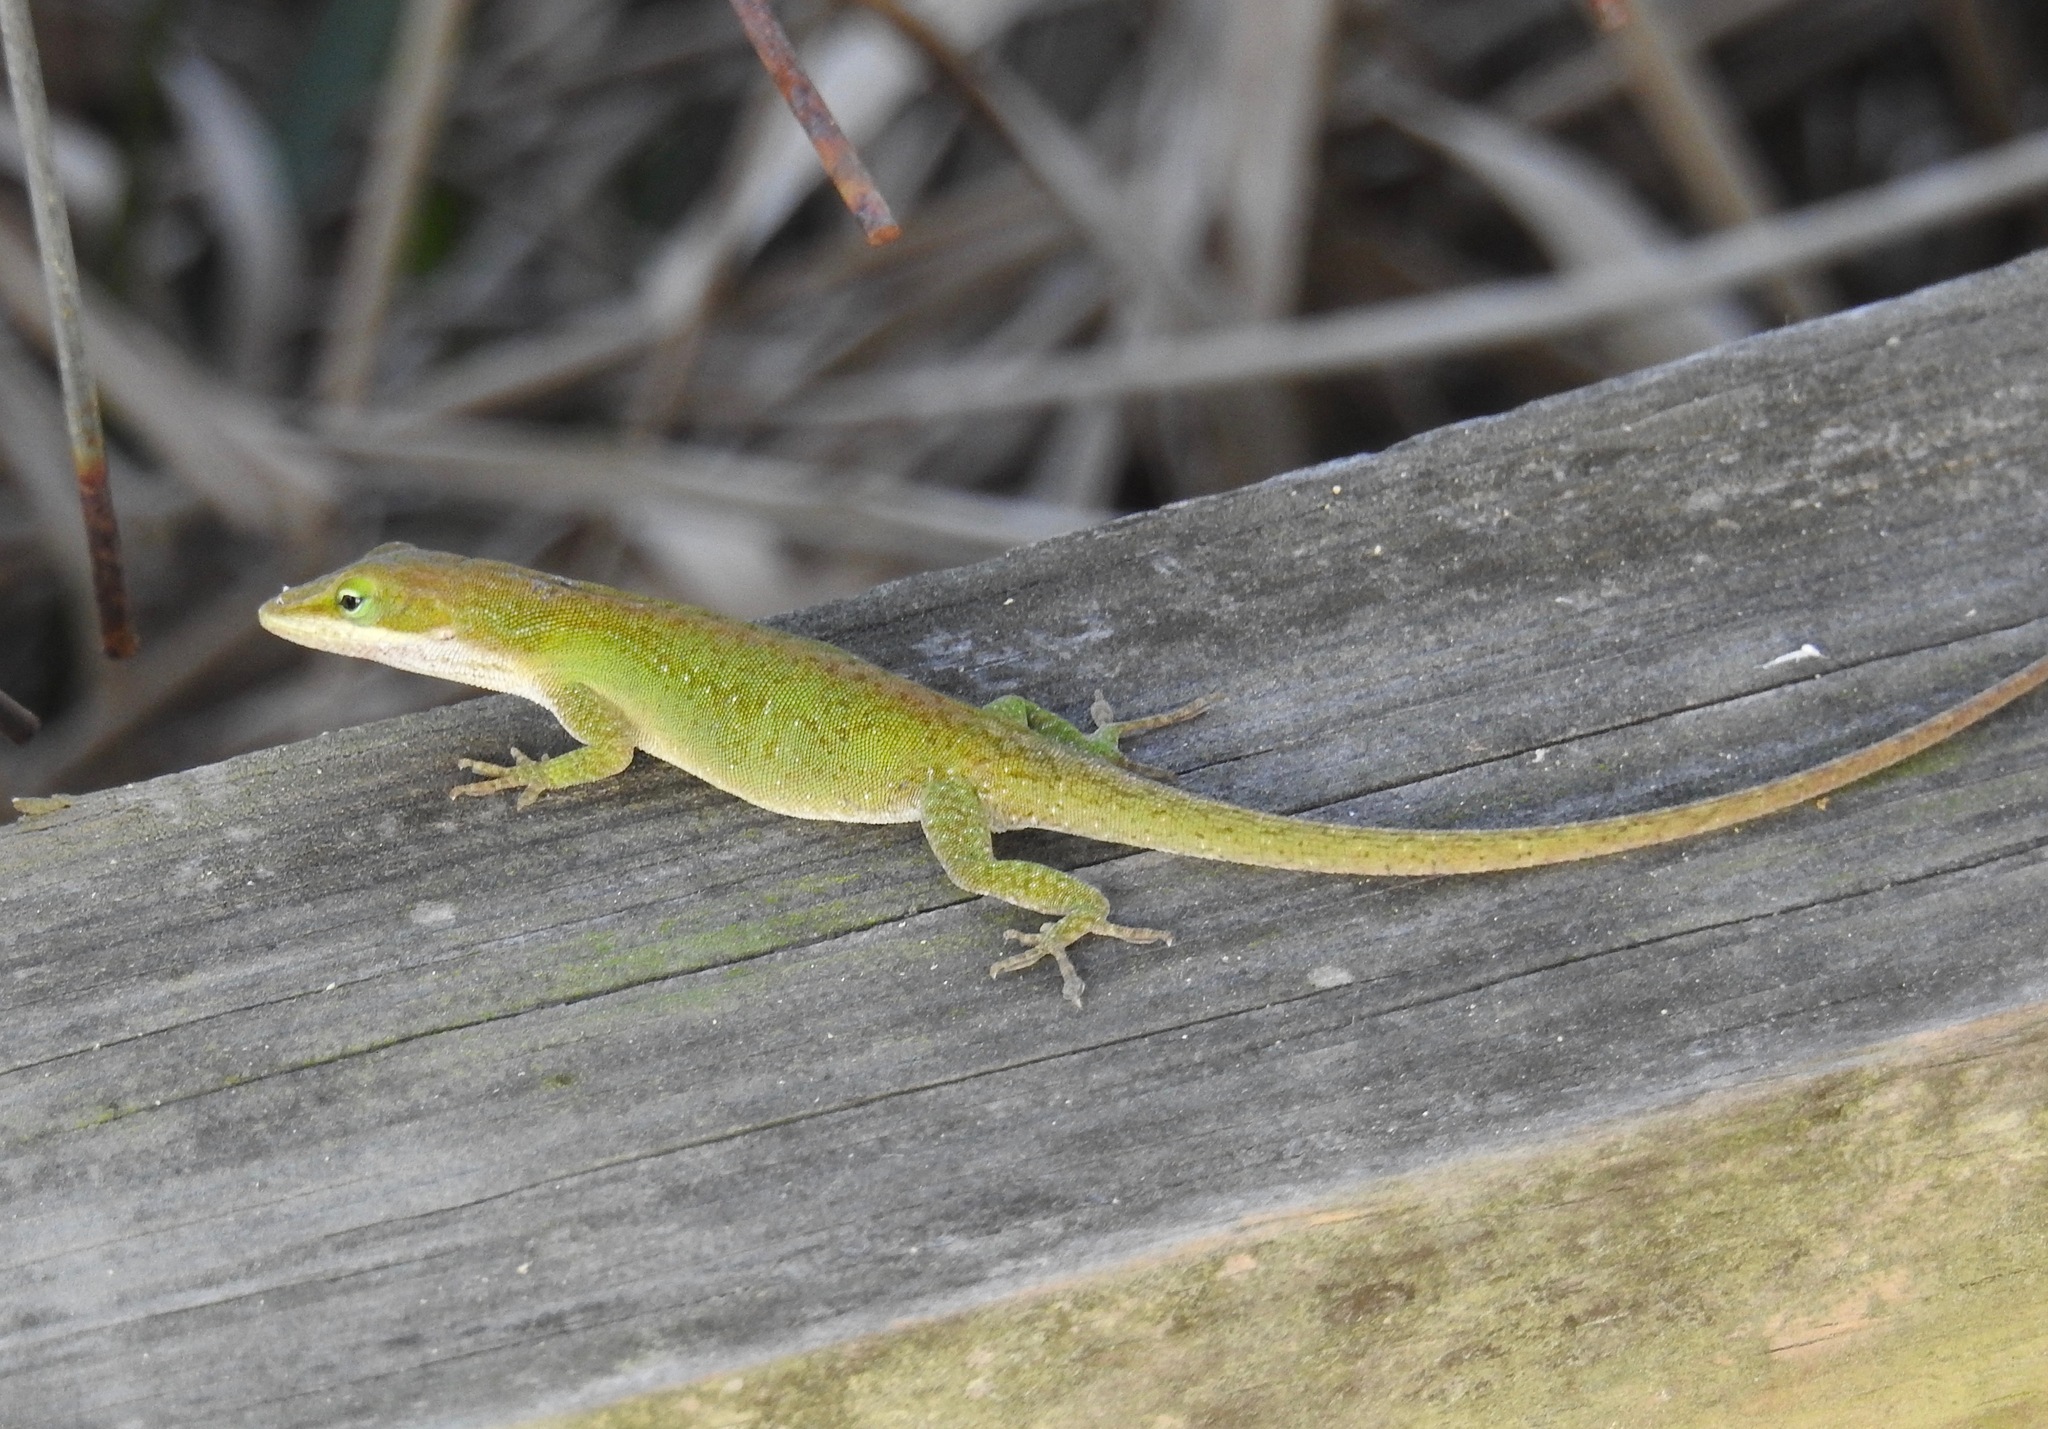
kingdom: Animalia
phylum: Chordata
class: Squamata
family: Dactyloidae
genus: Anolis
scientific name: Anolis carolinensis
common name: Green anole
